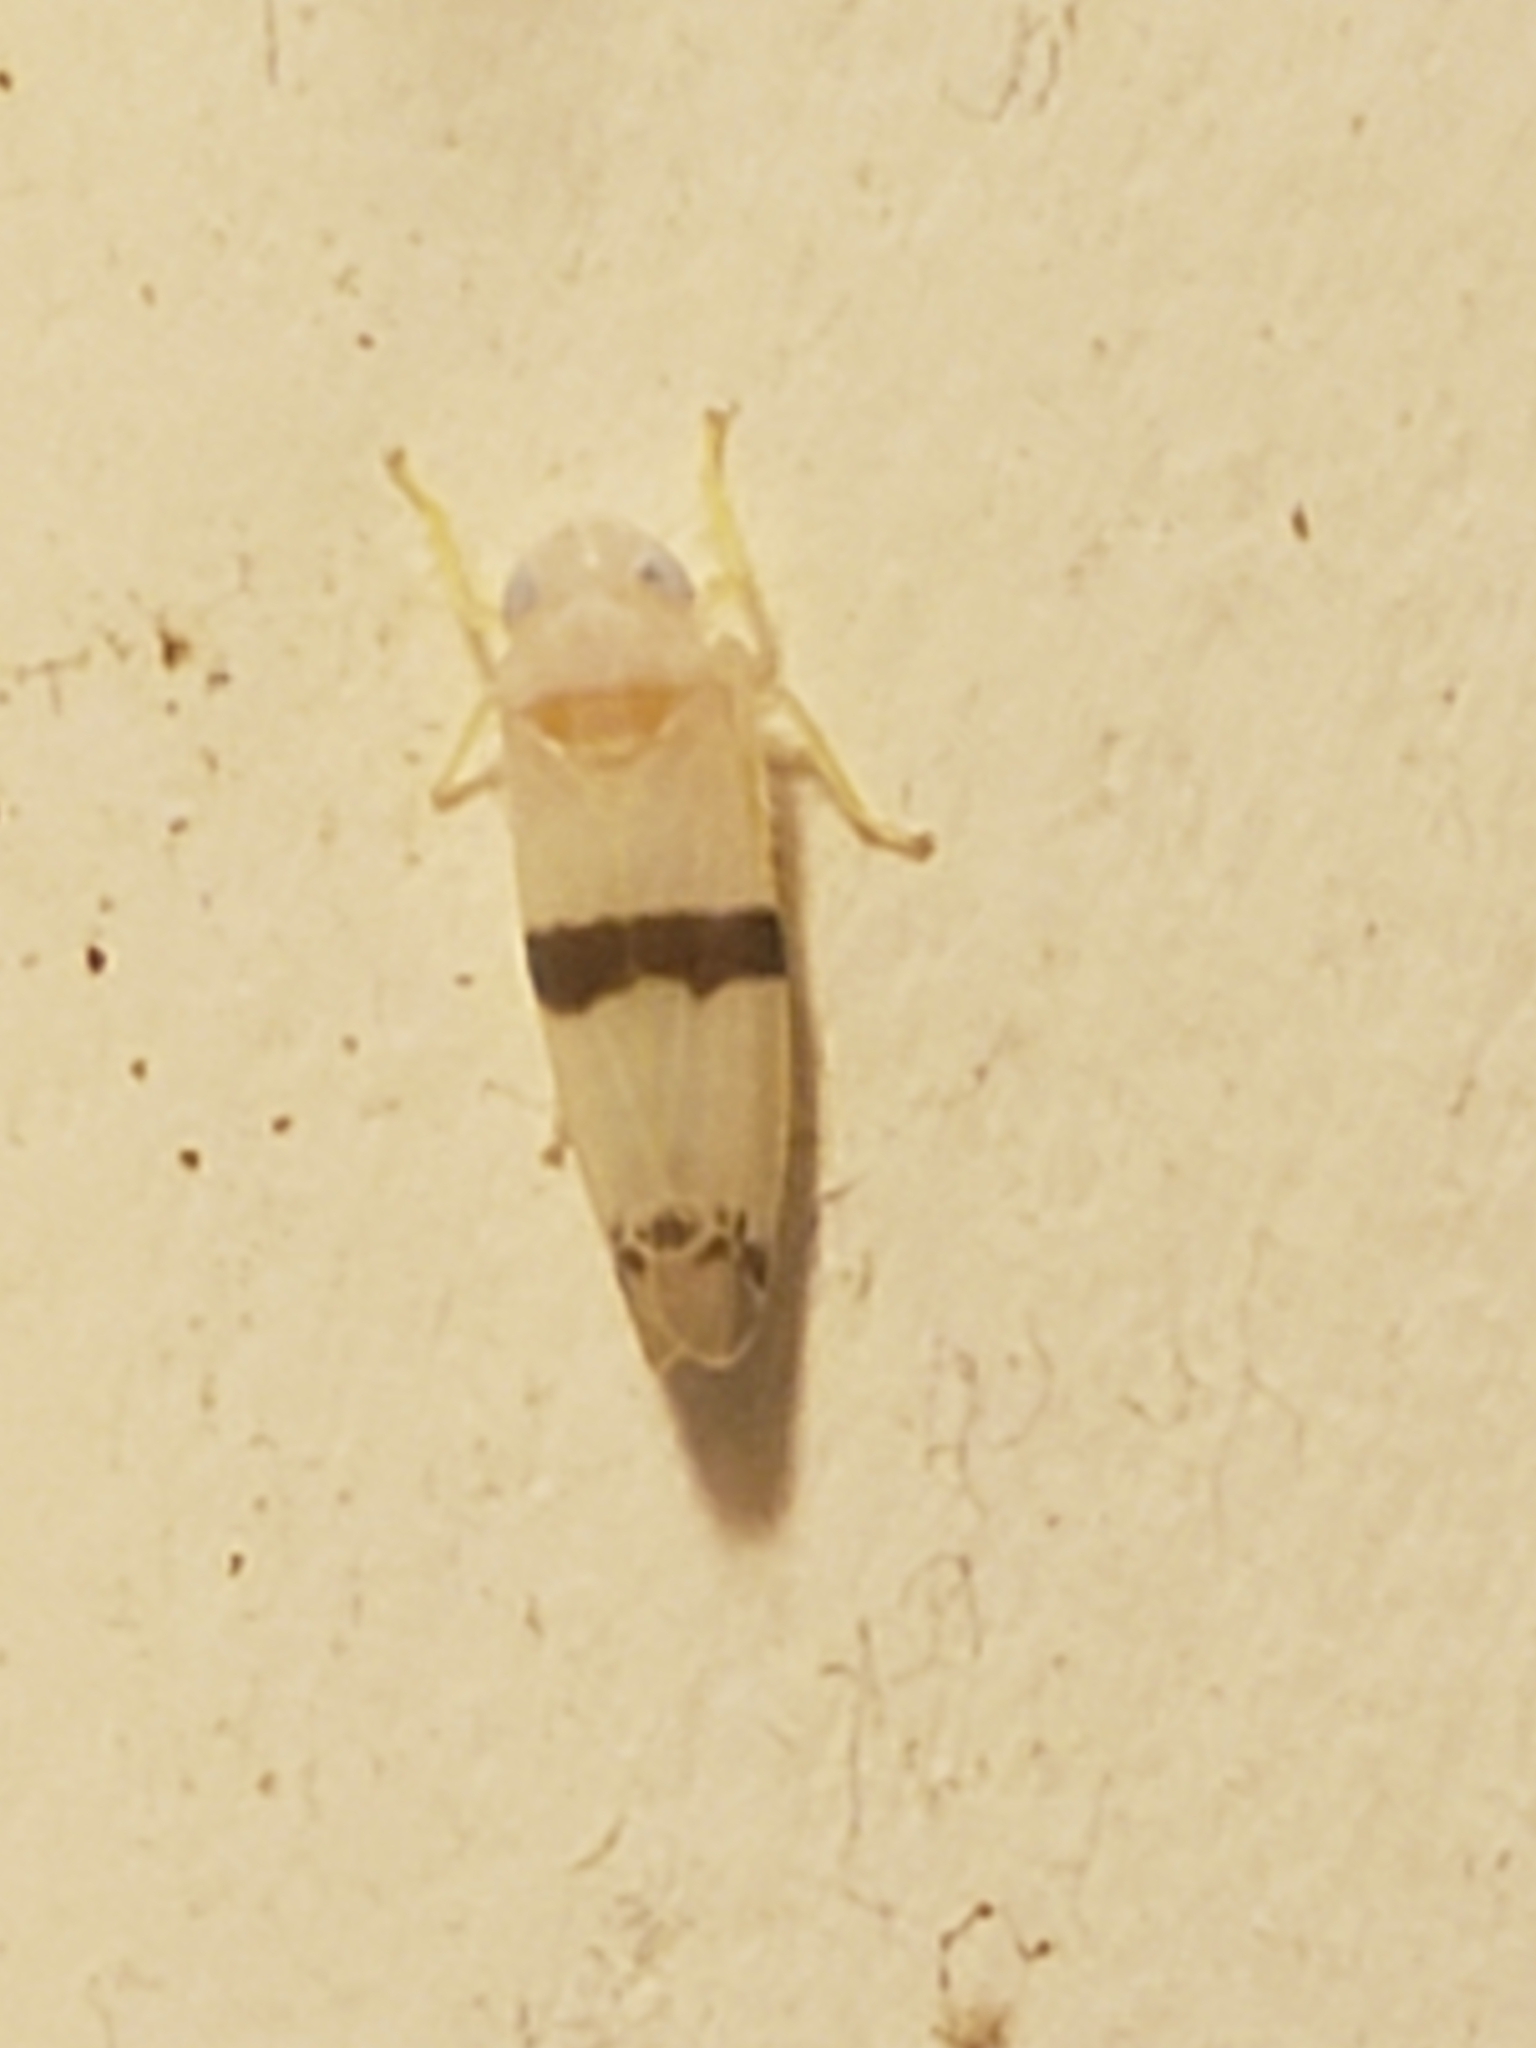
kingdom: Animalia
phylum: Arthropoda
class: Insecta
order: Hemiptera
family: Cicadellidae
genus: Empoa
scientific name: Empoa gillettei
